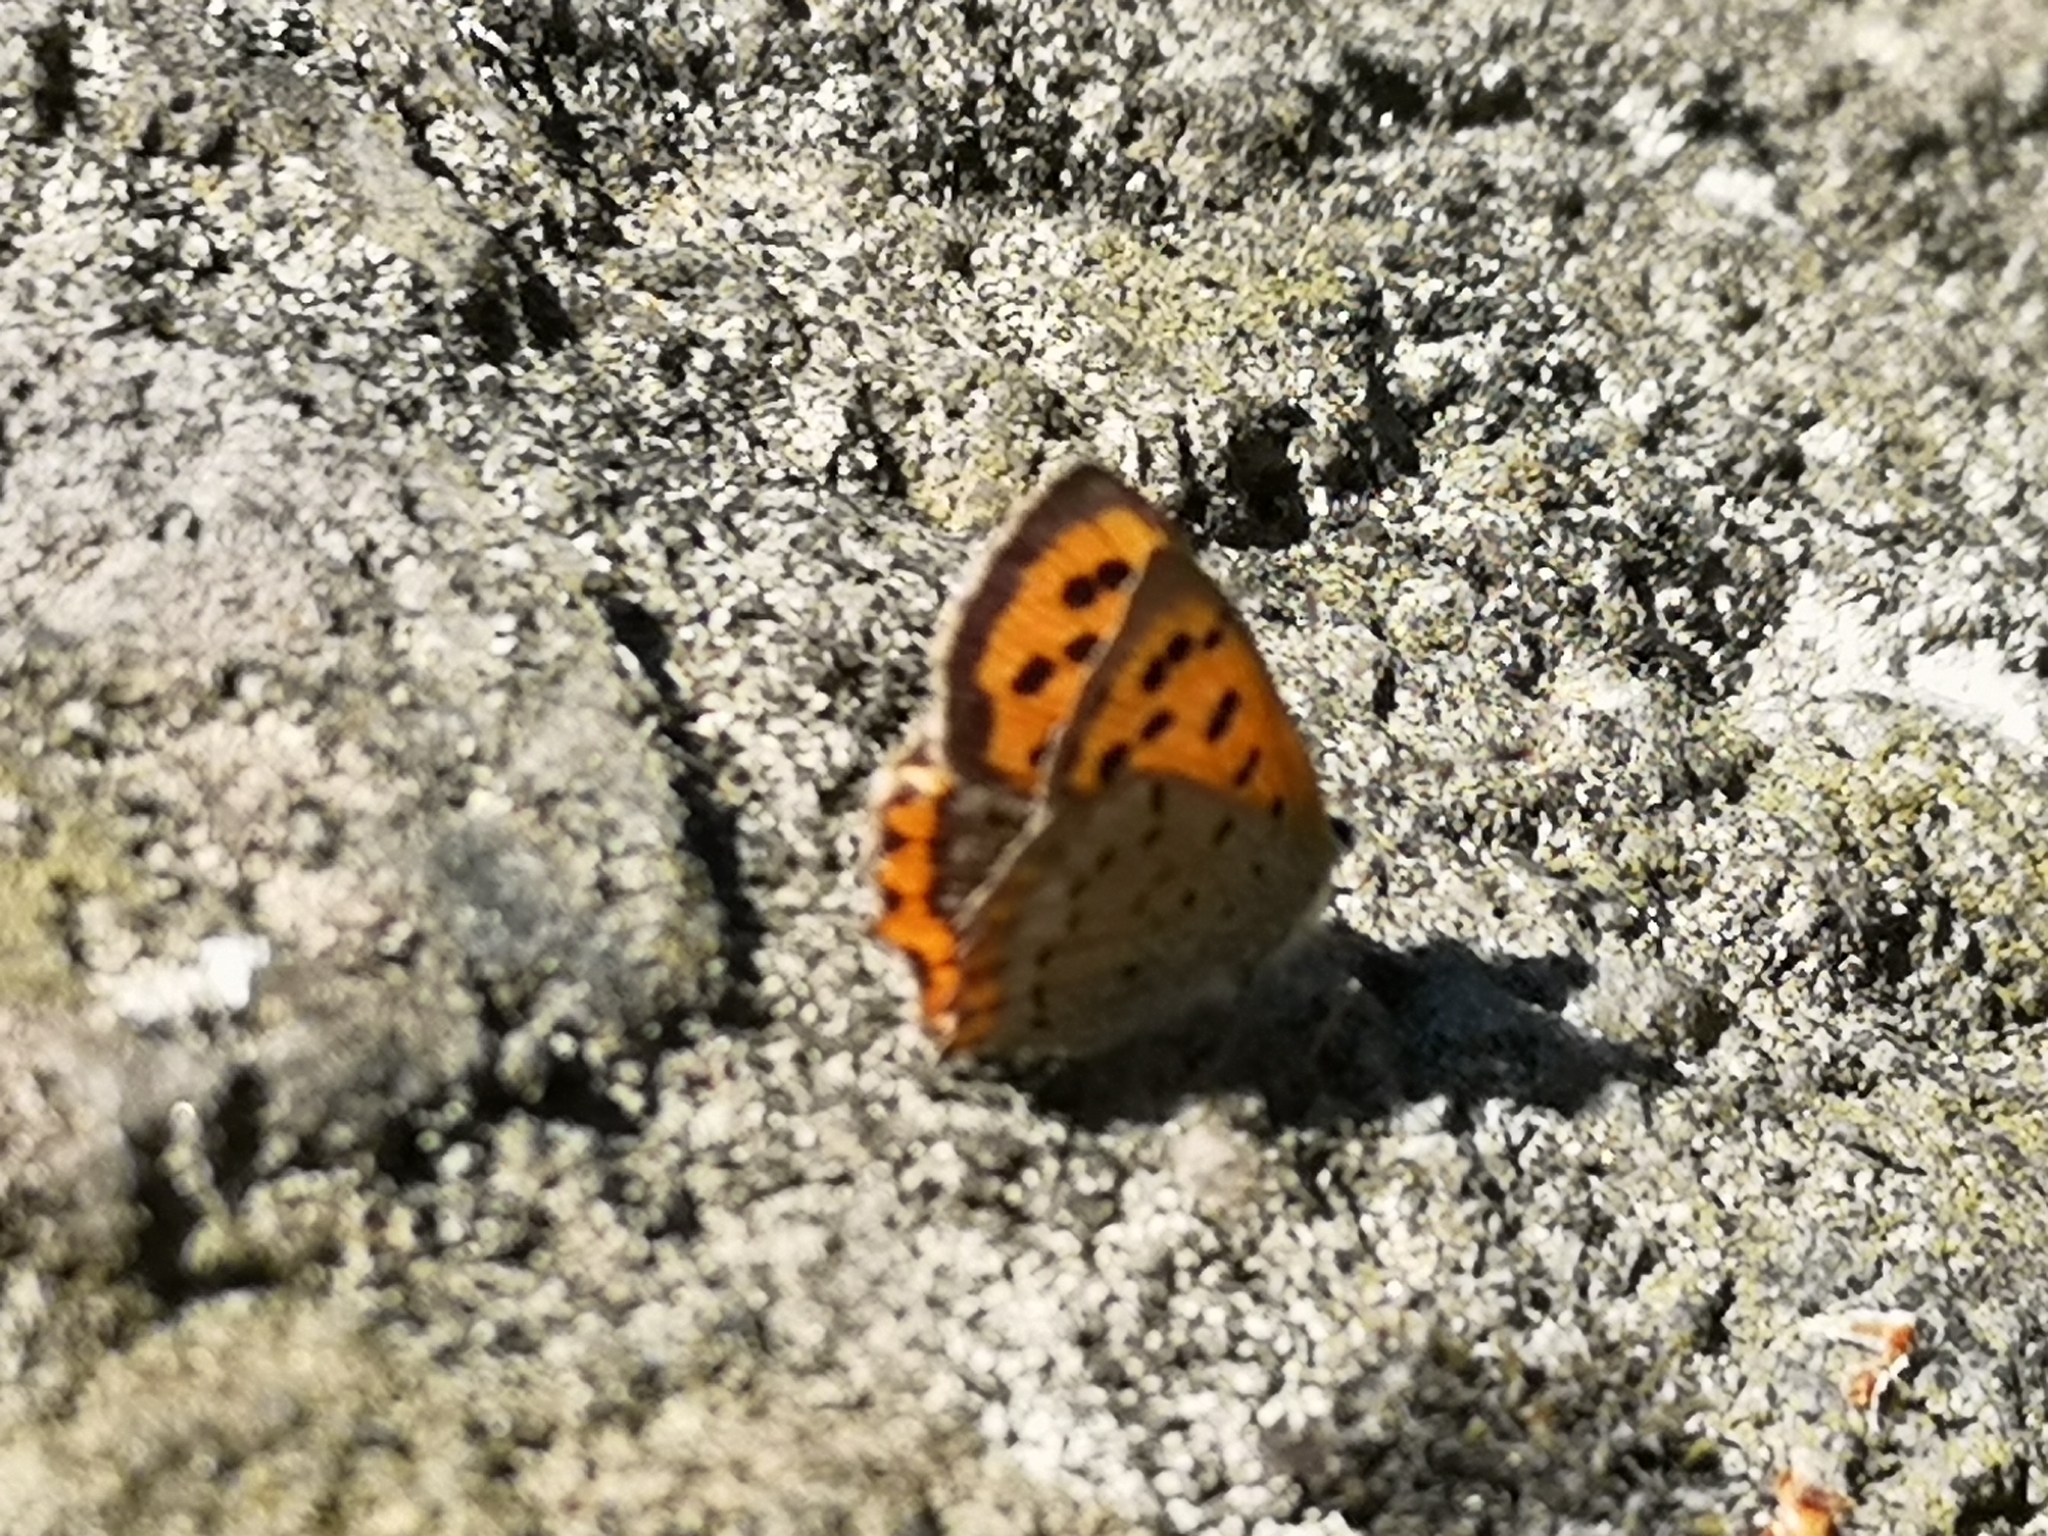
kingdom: Animalia
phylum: Arthropoda
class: Insecta
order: Lepidoptera
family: Lycaenidae
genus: Lycaena
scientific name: Lycaena phlaeas
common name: Small copper
